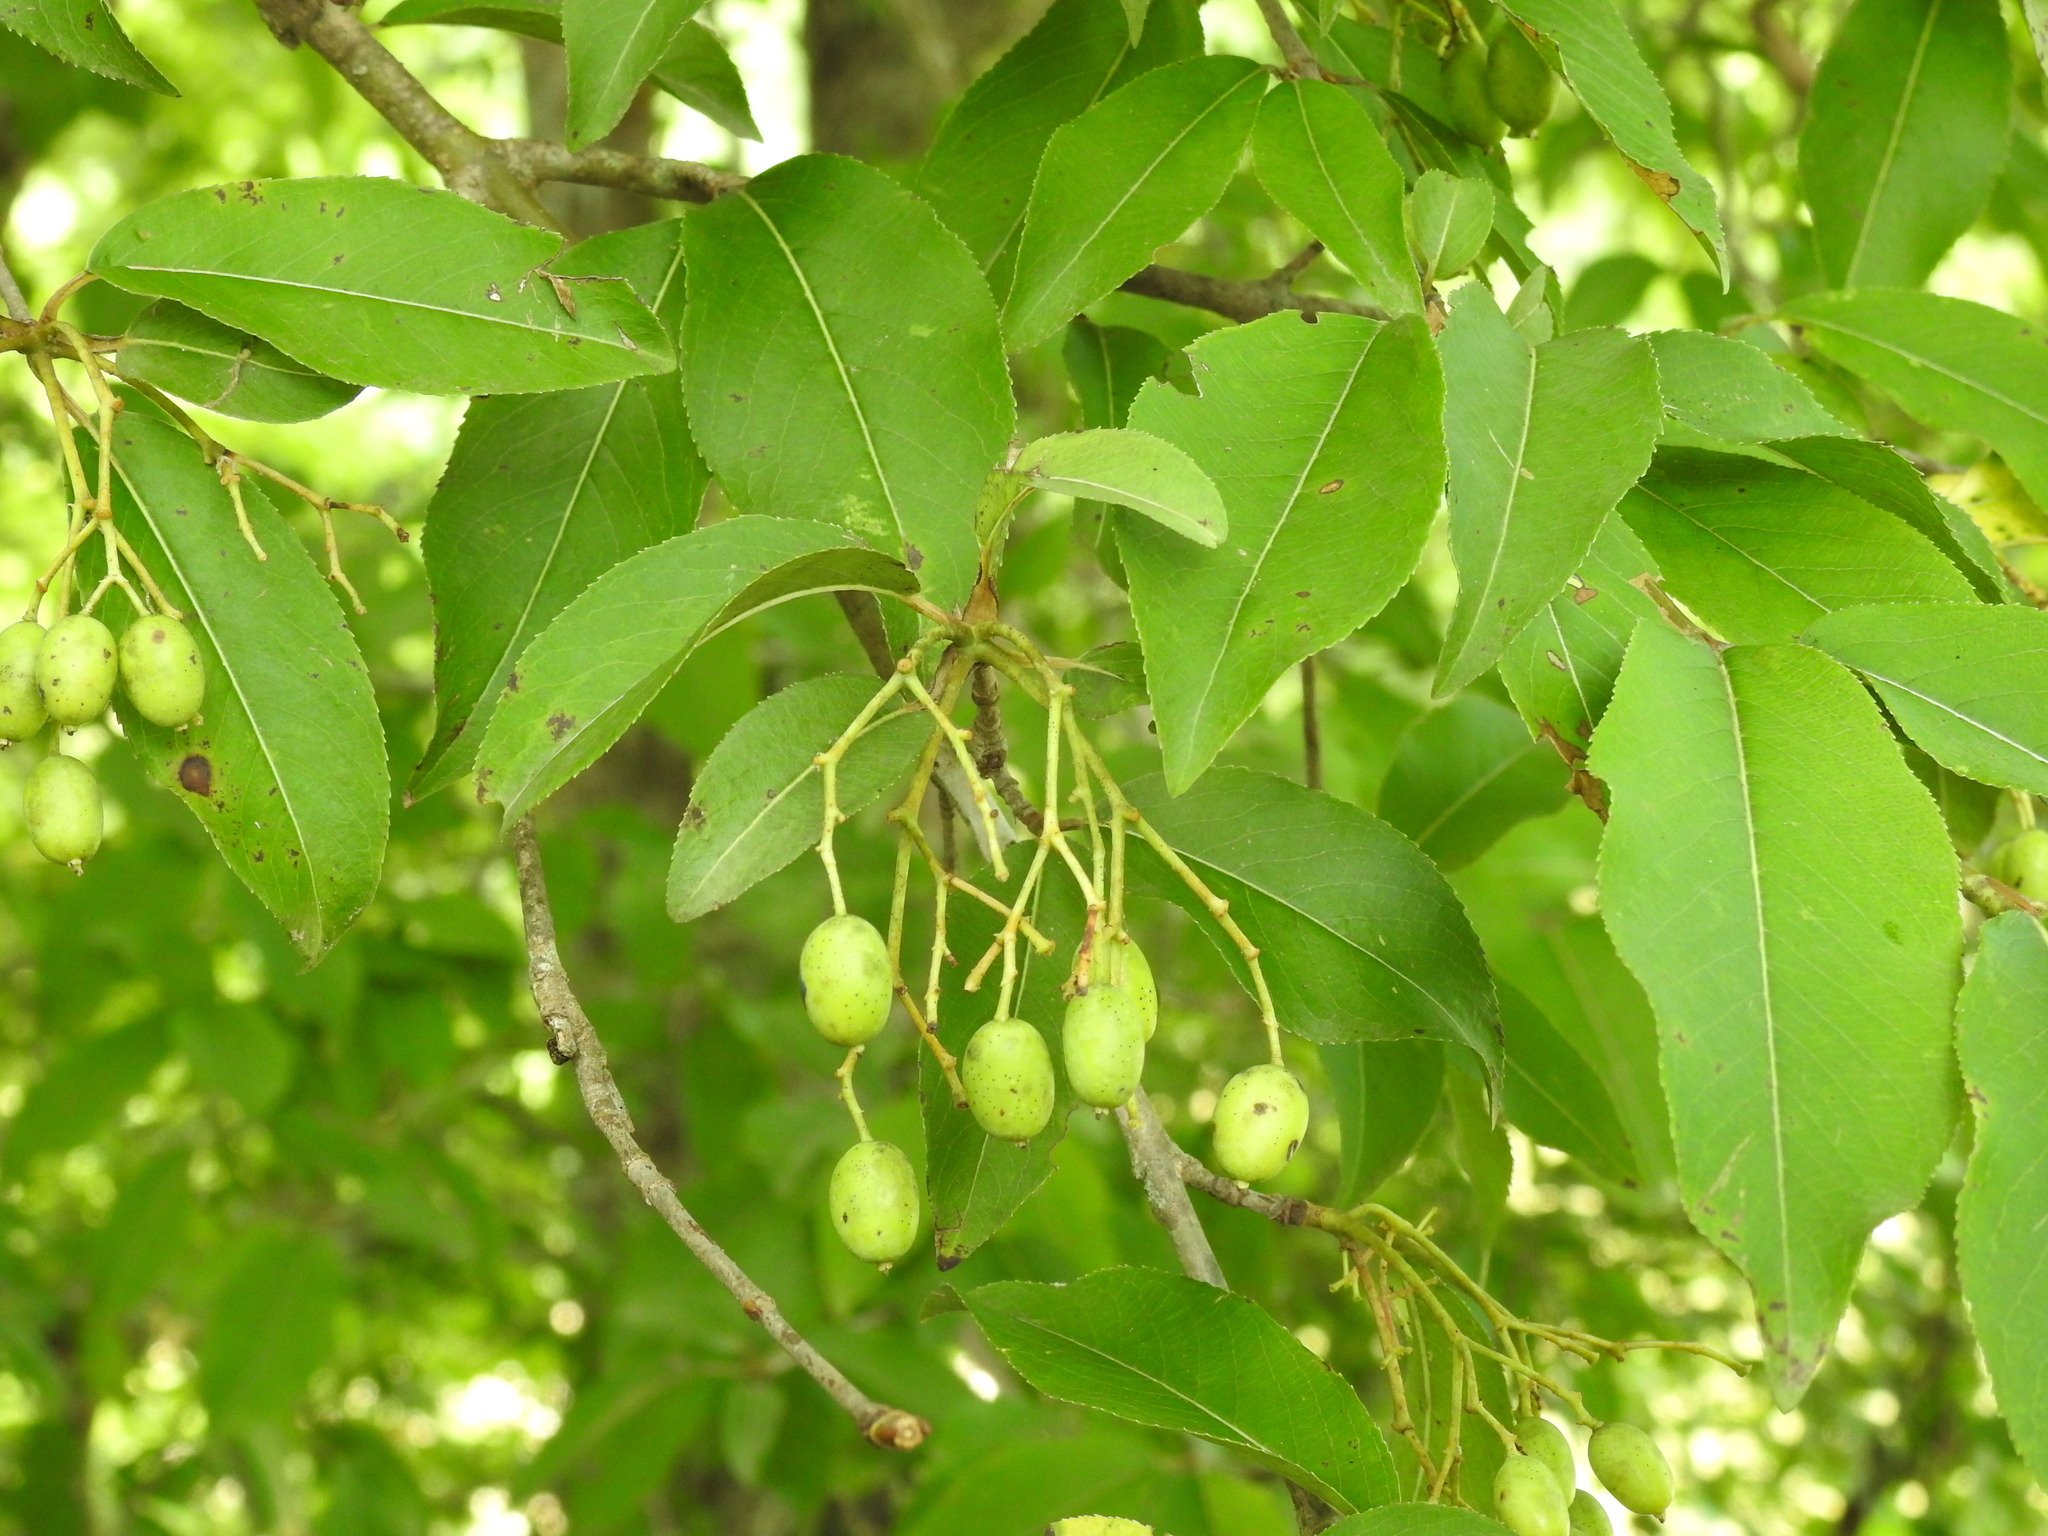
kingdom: Plantae
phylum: Tracheophyta
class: Magnoliopsida
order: Dipsacales
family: Viburnaceae
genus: Viburnum
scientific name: Viburnum prunifolium
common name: Black haw
